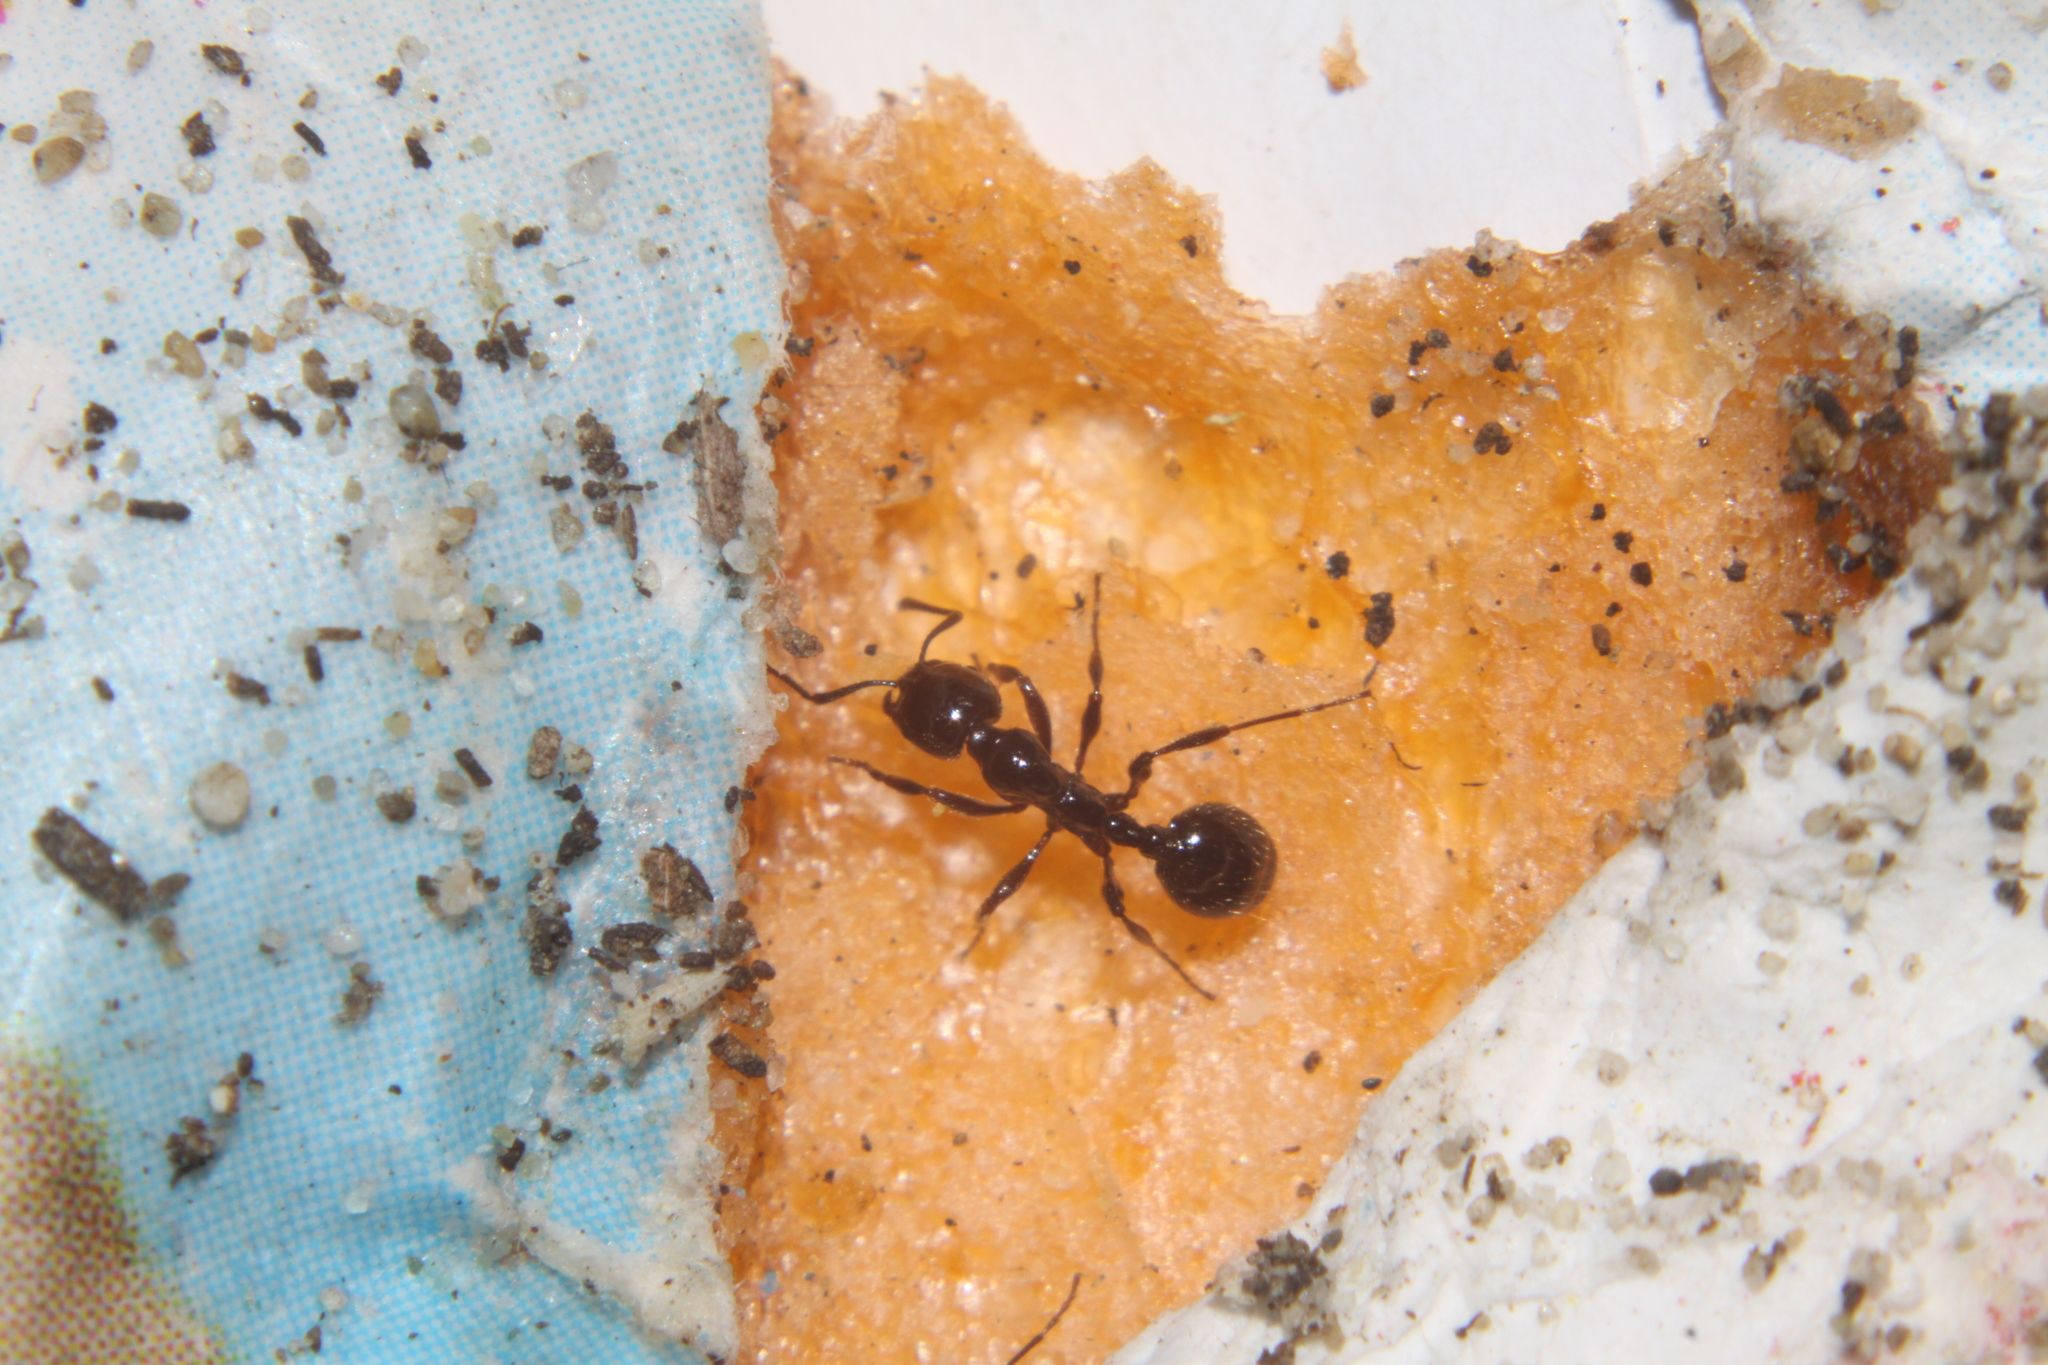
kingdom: Animalia
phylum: Arthropoda
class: Insecta
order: Hymenoptera
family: Formicidae
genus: Monomorium
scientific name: Monomorium antarcticum
